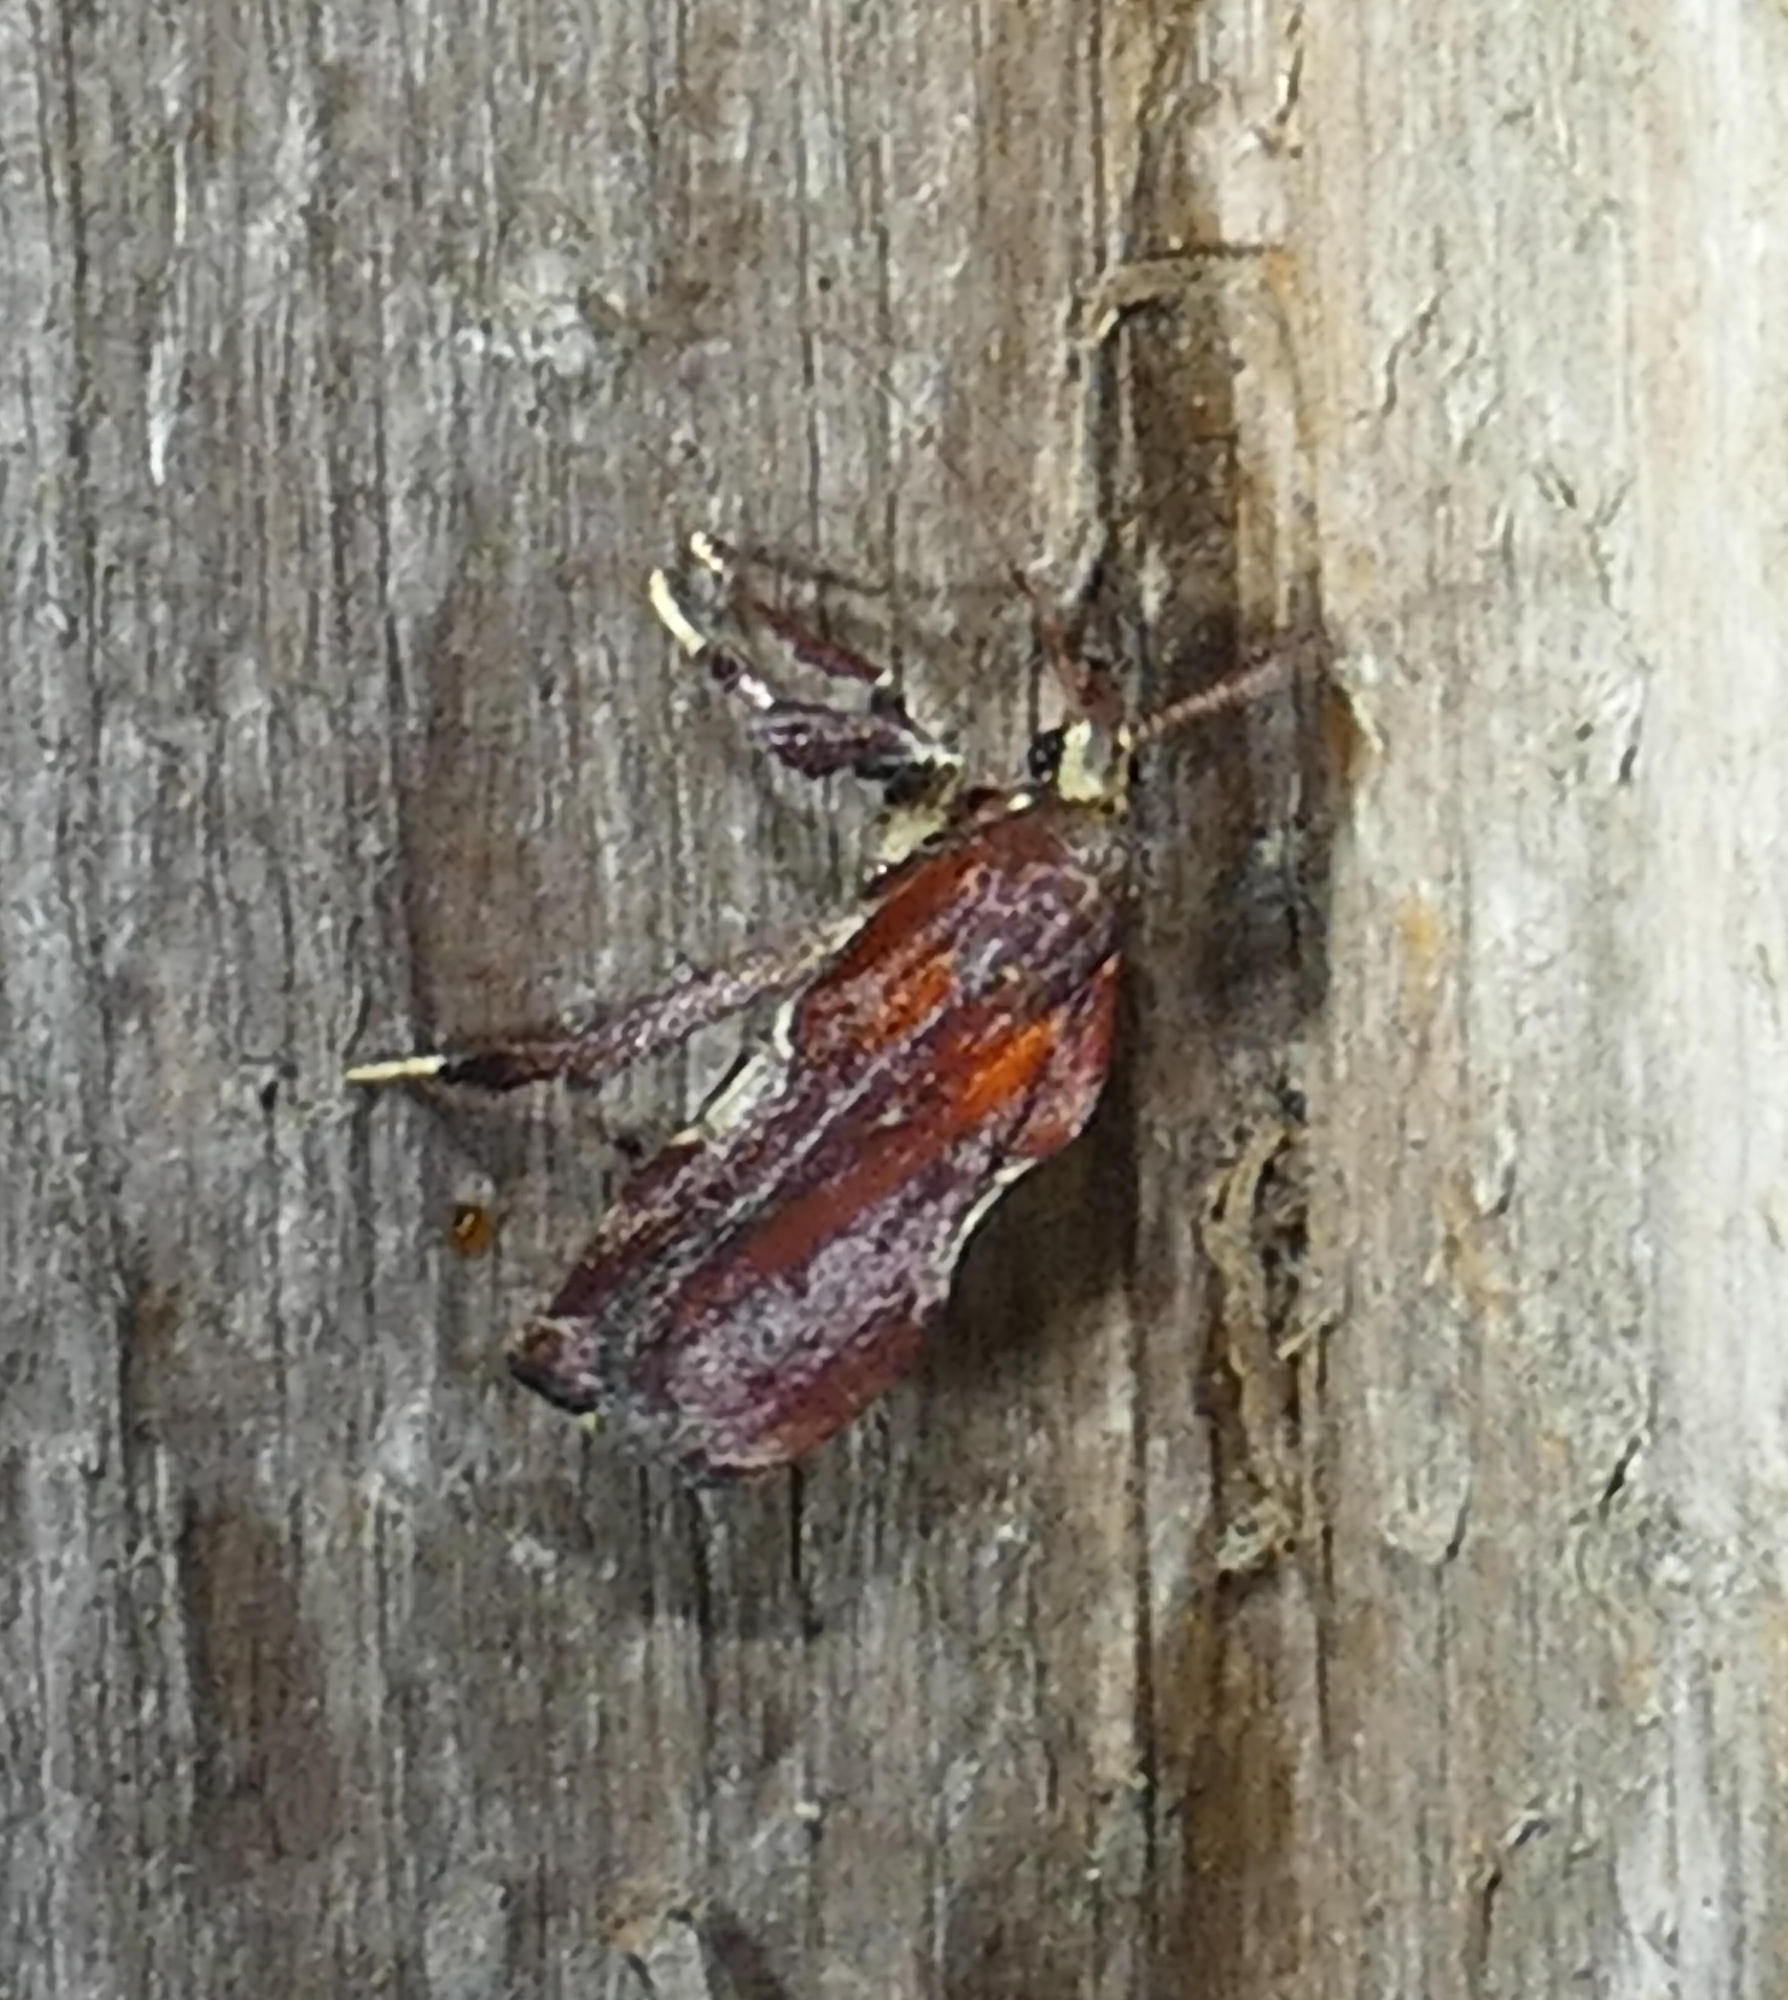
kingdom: Animalia
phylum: Arthropoda
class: Insecta
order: Lepidoptera
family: Pyralidae
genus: Galasa
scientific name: Galasa nigrinodis
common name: Boxwood leaftier moth
